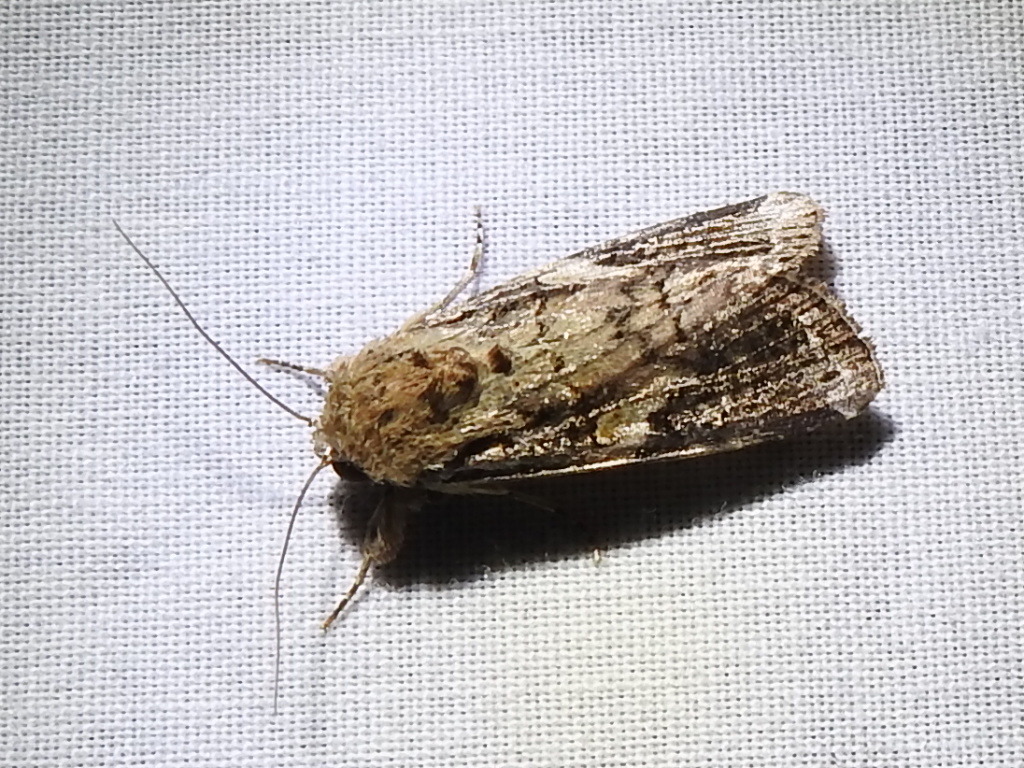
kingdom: Animalia
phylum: Arthropoda
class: Insecta
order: Lepidoptera
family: Noctuidae
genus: Spodoptera
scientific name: Spodoptera frugiperda
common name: Fall armyworm
